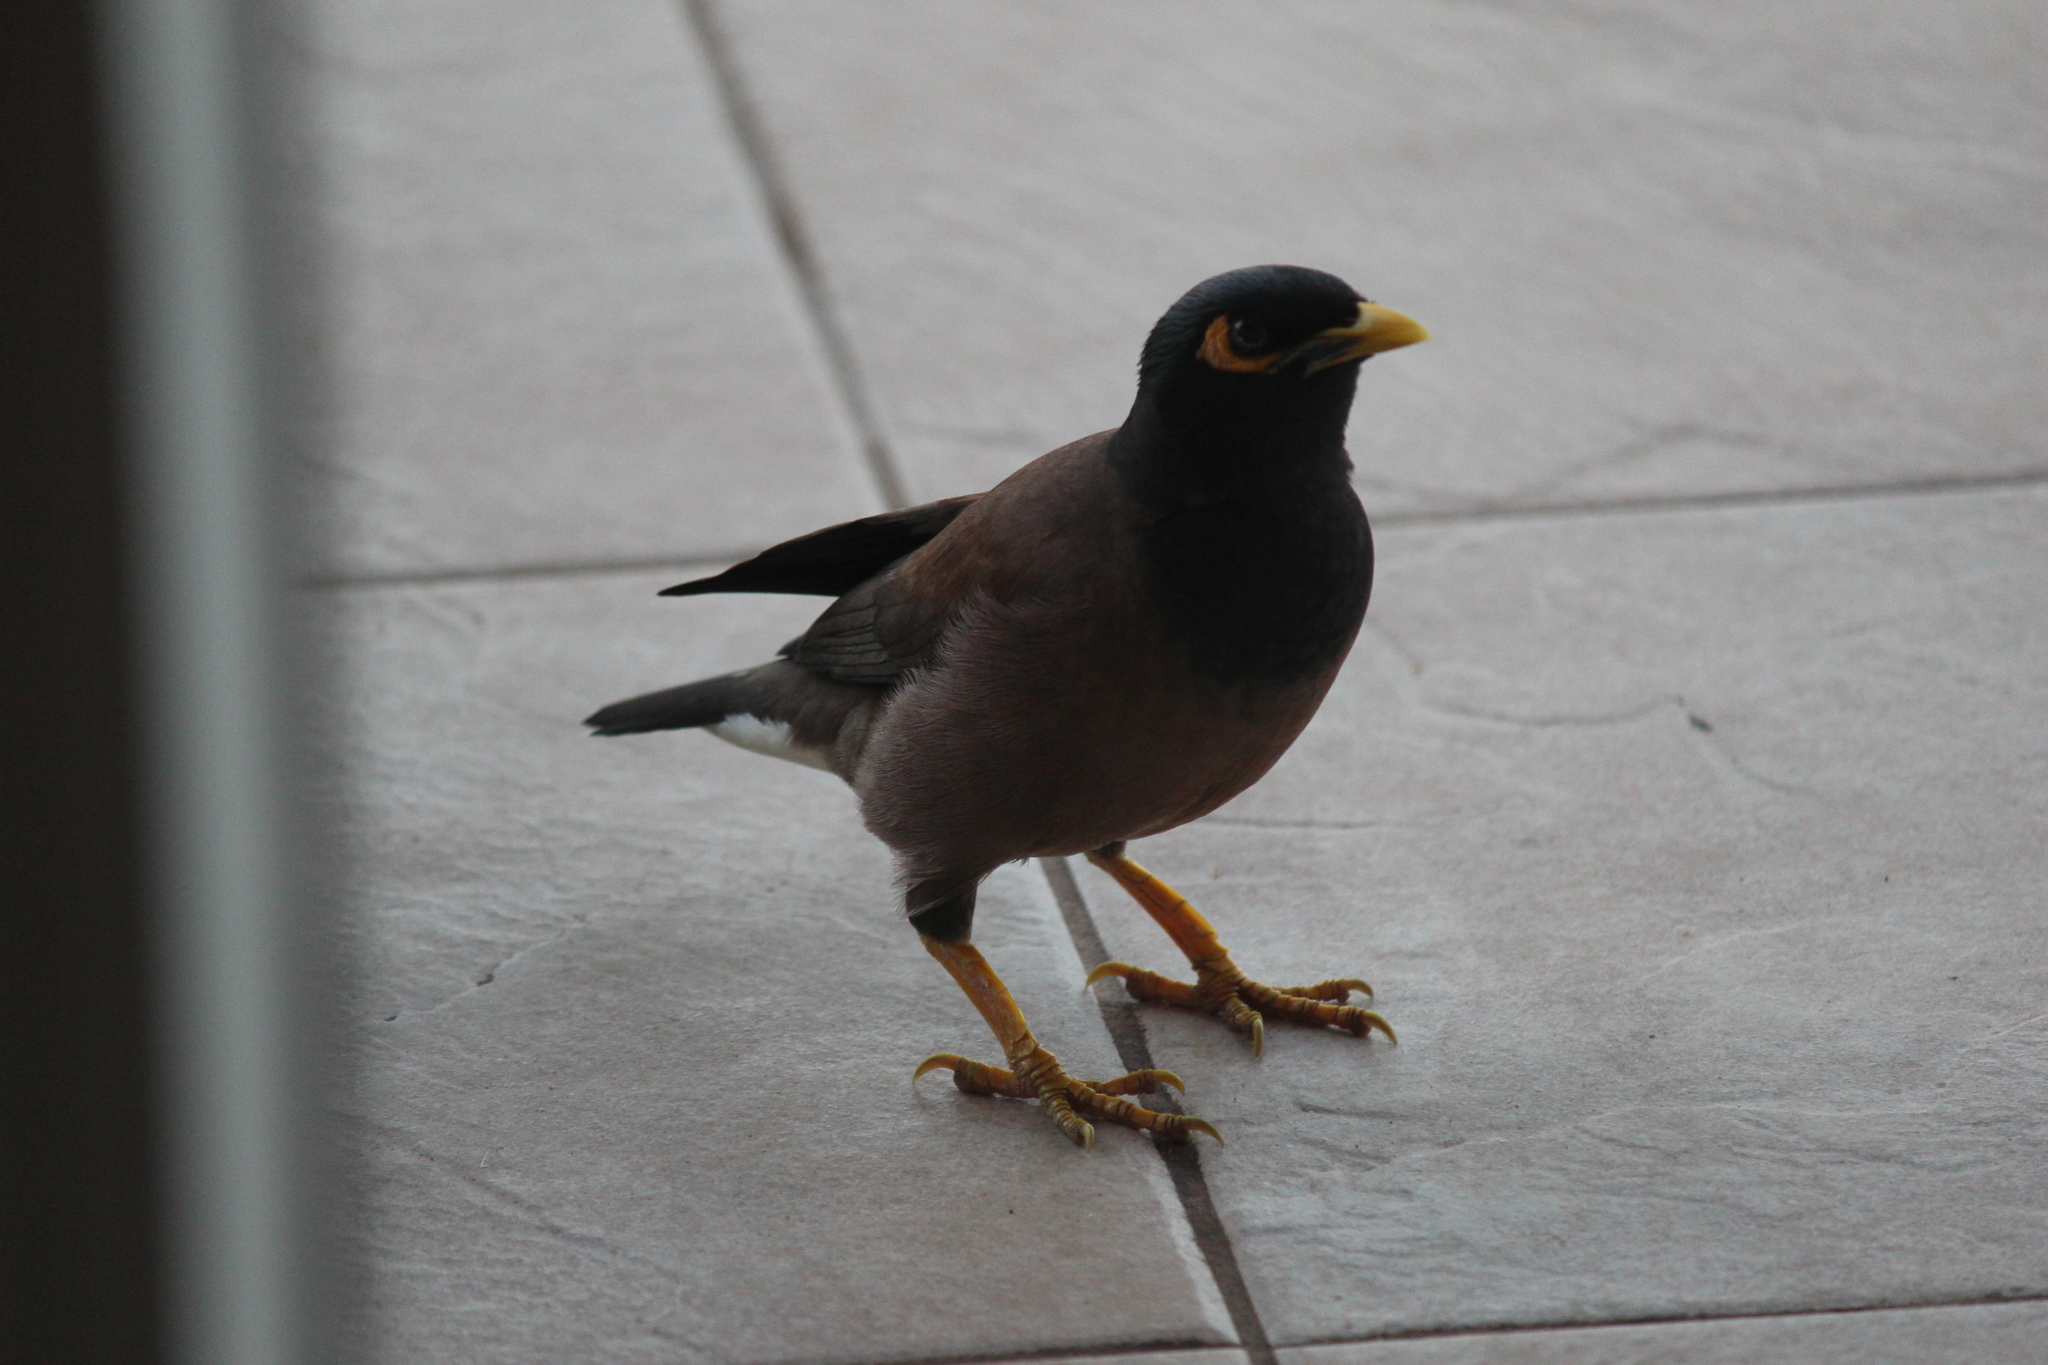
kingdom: Animalia
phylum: Chordata
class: Aves
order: Passeriformes
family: Sturnidae
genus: Acridotheres
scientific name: Acridotheres tristis
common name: Common myna
